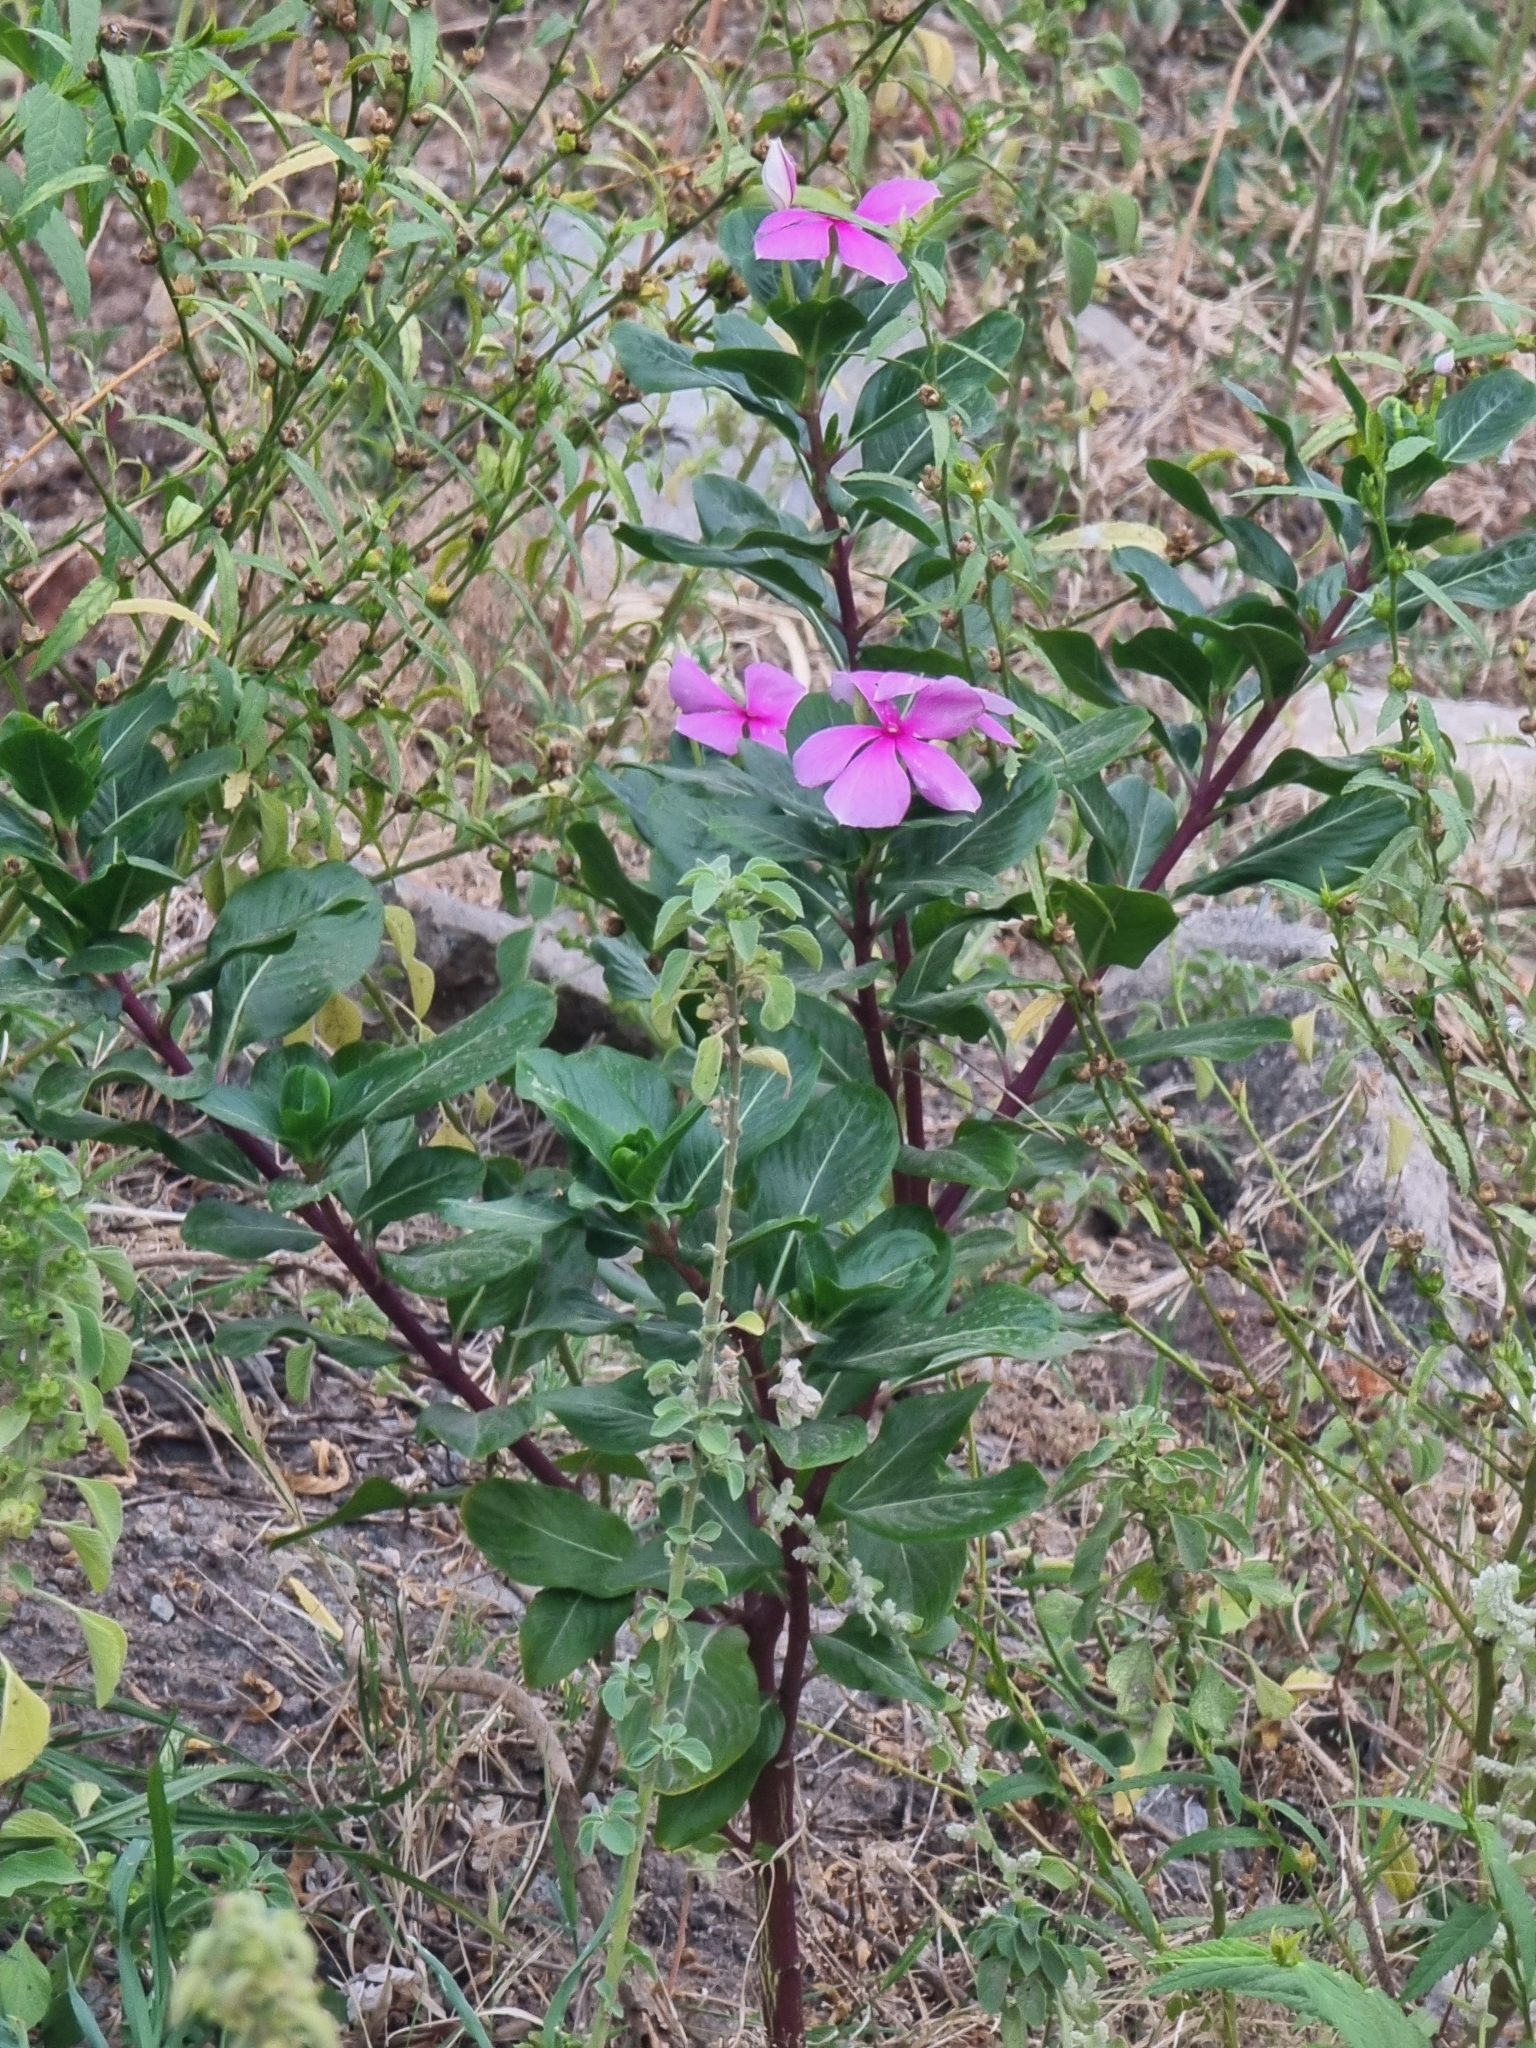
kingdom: Plantae
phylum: Tracheophyta
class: Magnoliopsida
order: Gentianales
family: Apocynaceae
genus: Catharanthus
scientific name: Catharanthus roseus
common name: Madagascar periwinkle
